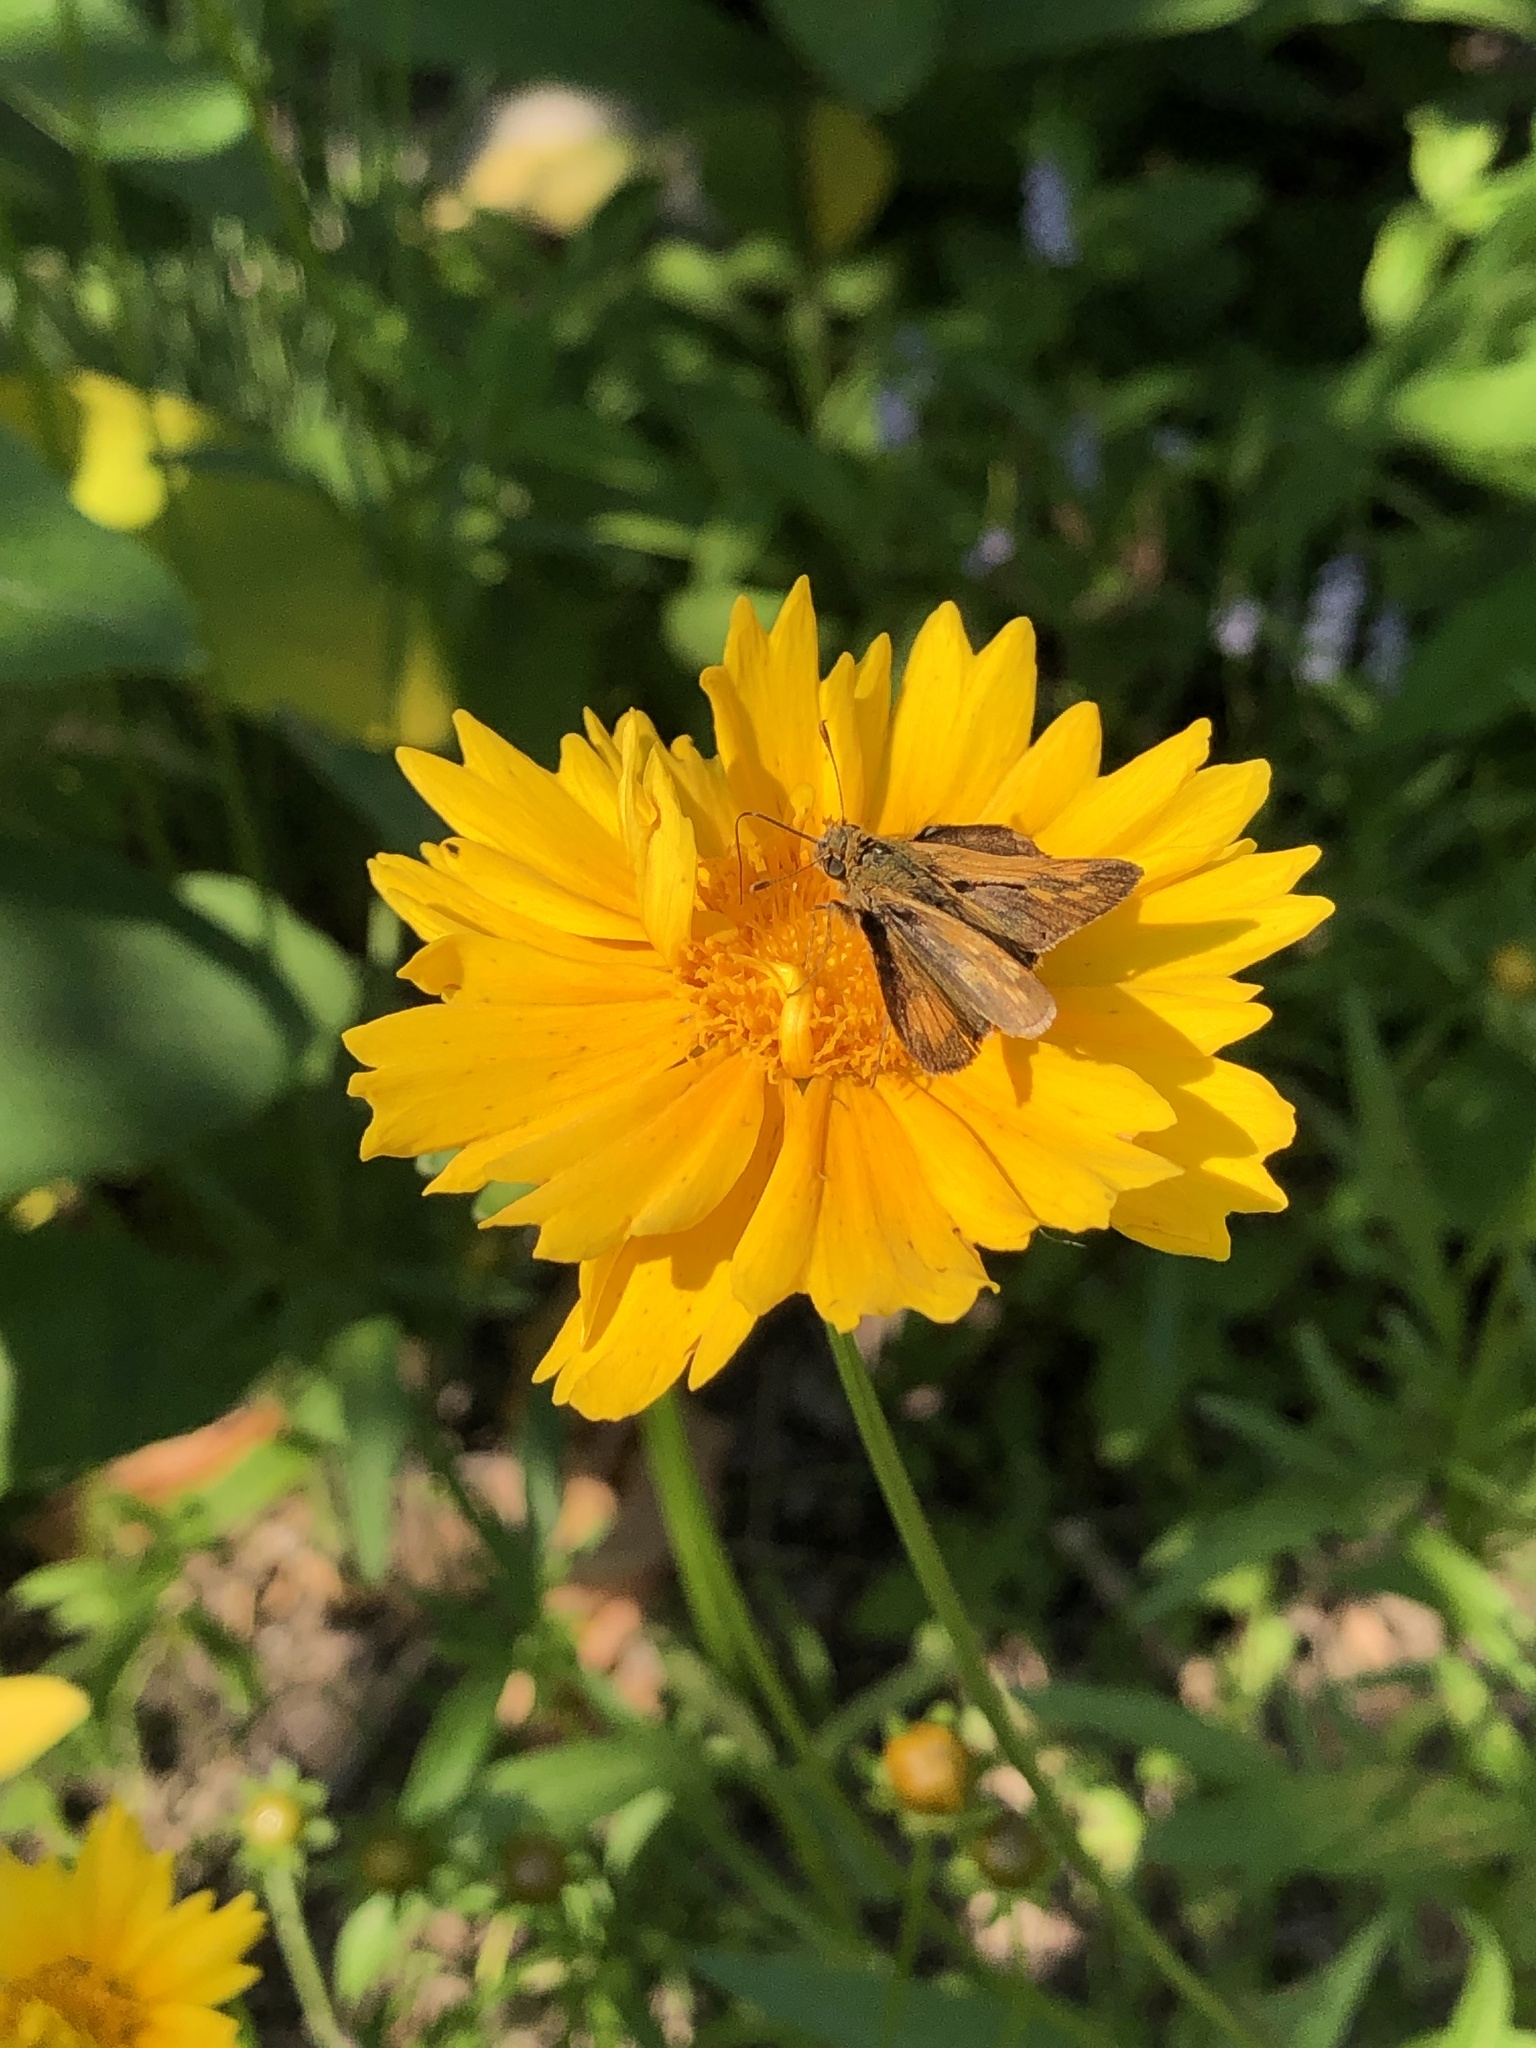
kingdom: Animalia
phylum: Arthropoda
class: Insecta
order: Lepidoptera
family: Hesperiidae
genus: Polites
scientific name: Polites coras
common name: Peck's skipper
